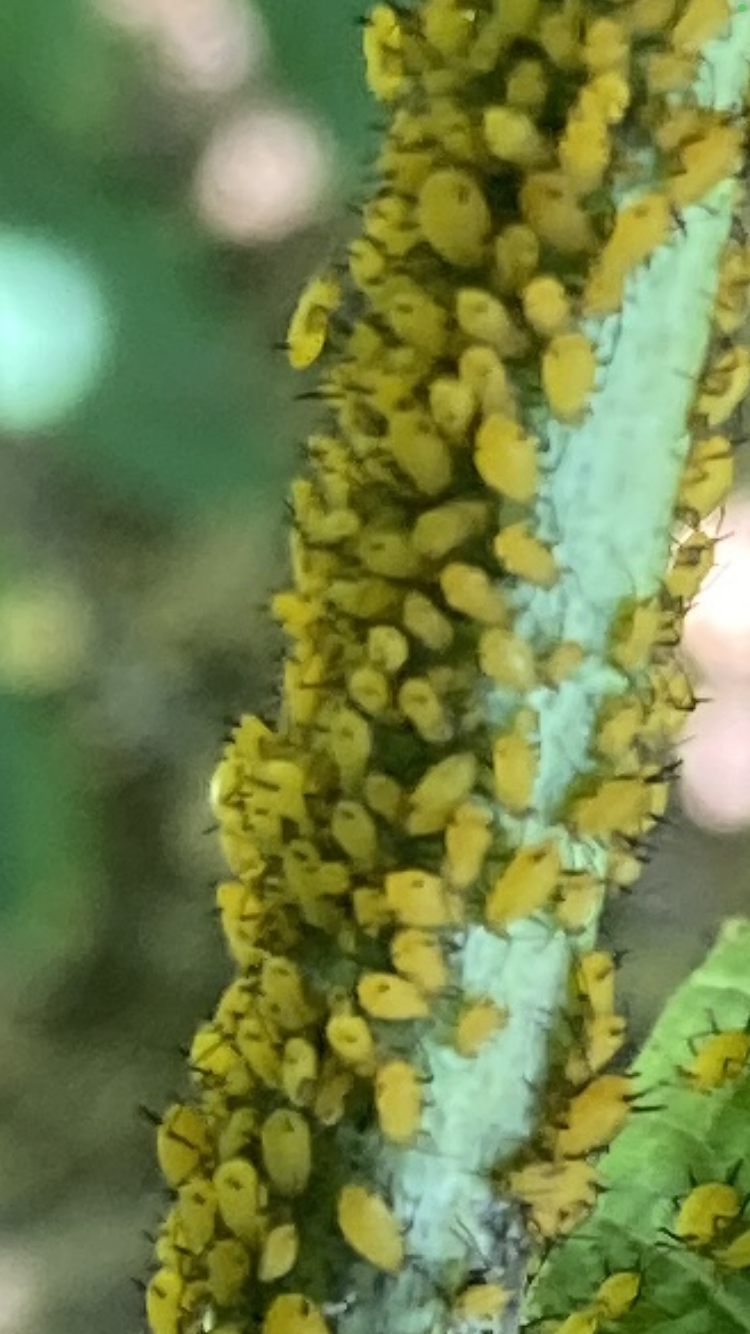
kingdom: Animalia
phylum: Arthropoda
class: Insecta
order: Hemiptera
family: Aphididae
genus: Aphis
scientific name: Aphis nerii
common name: Oleander aphid
